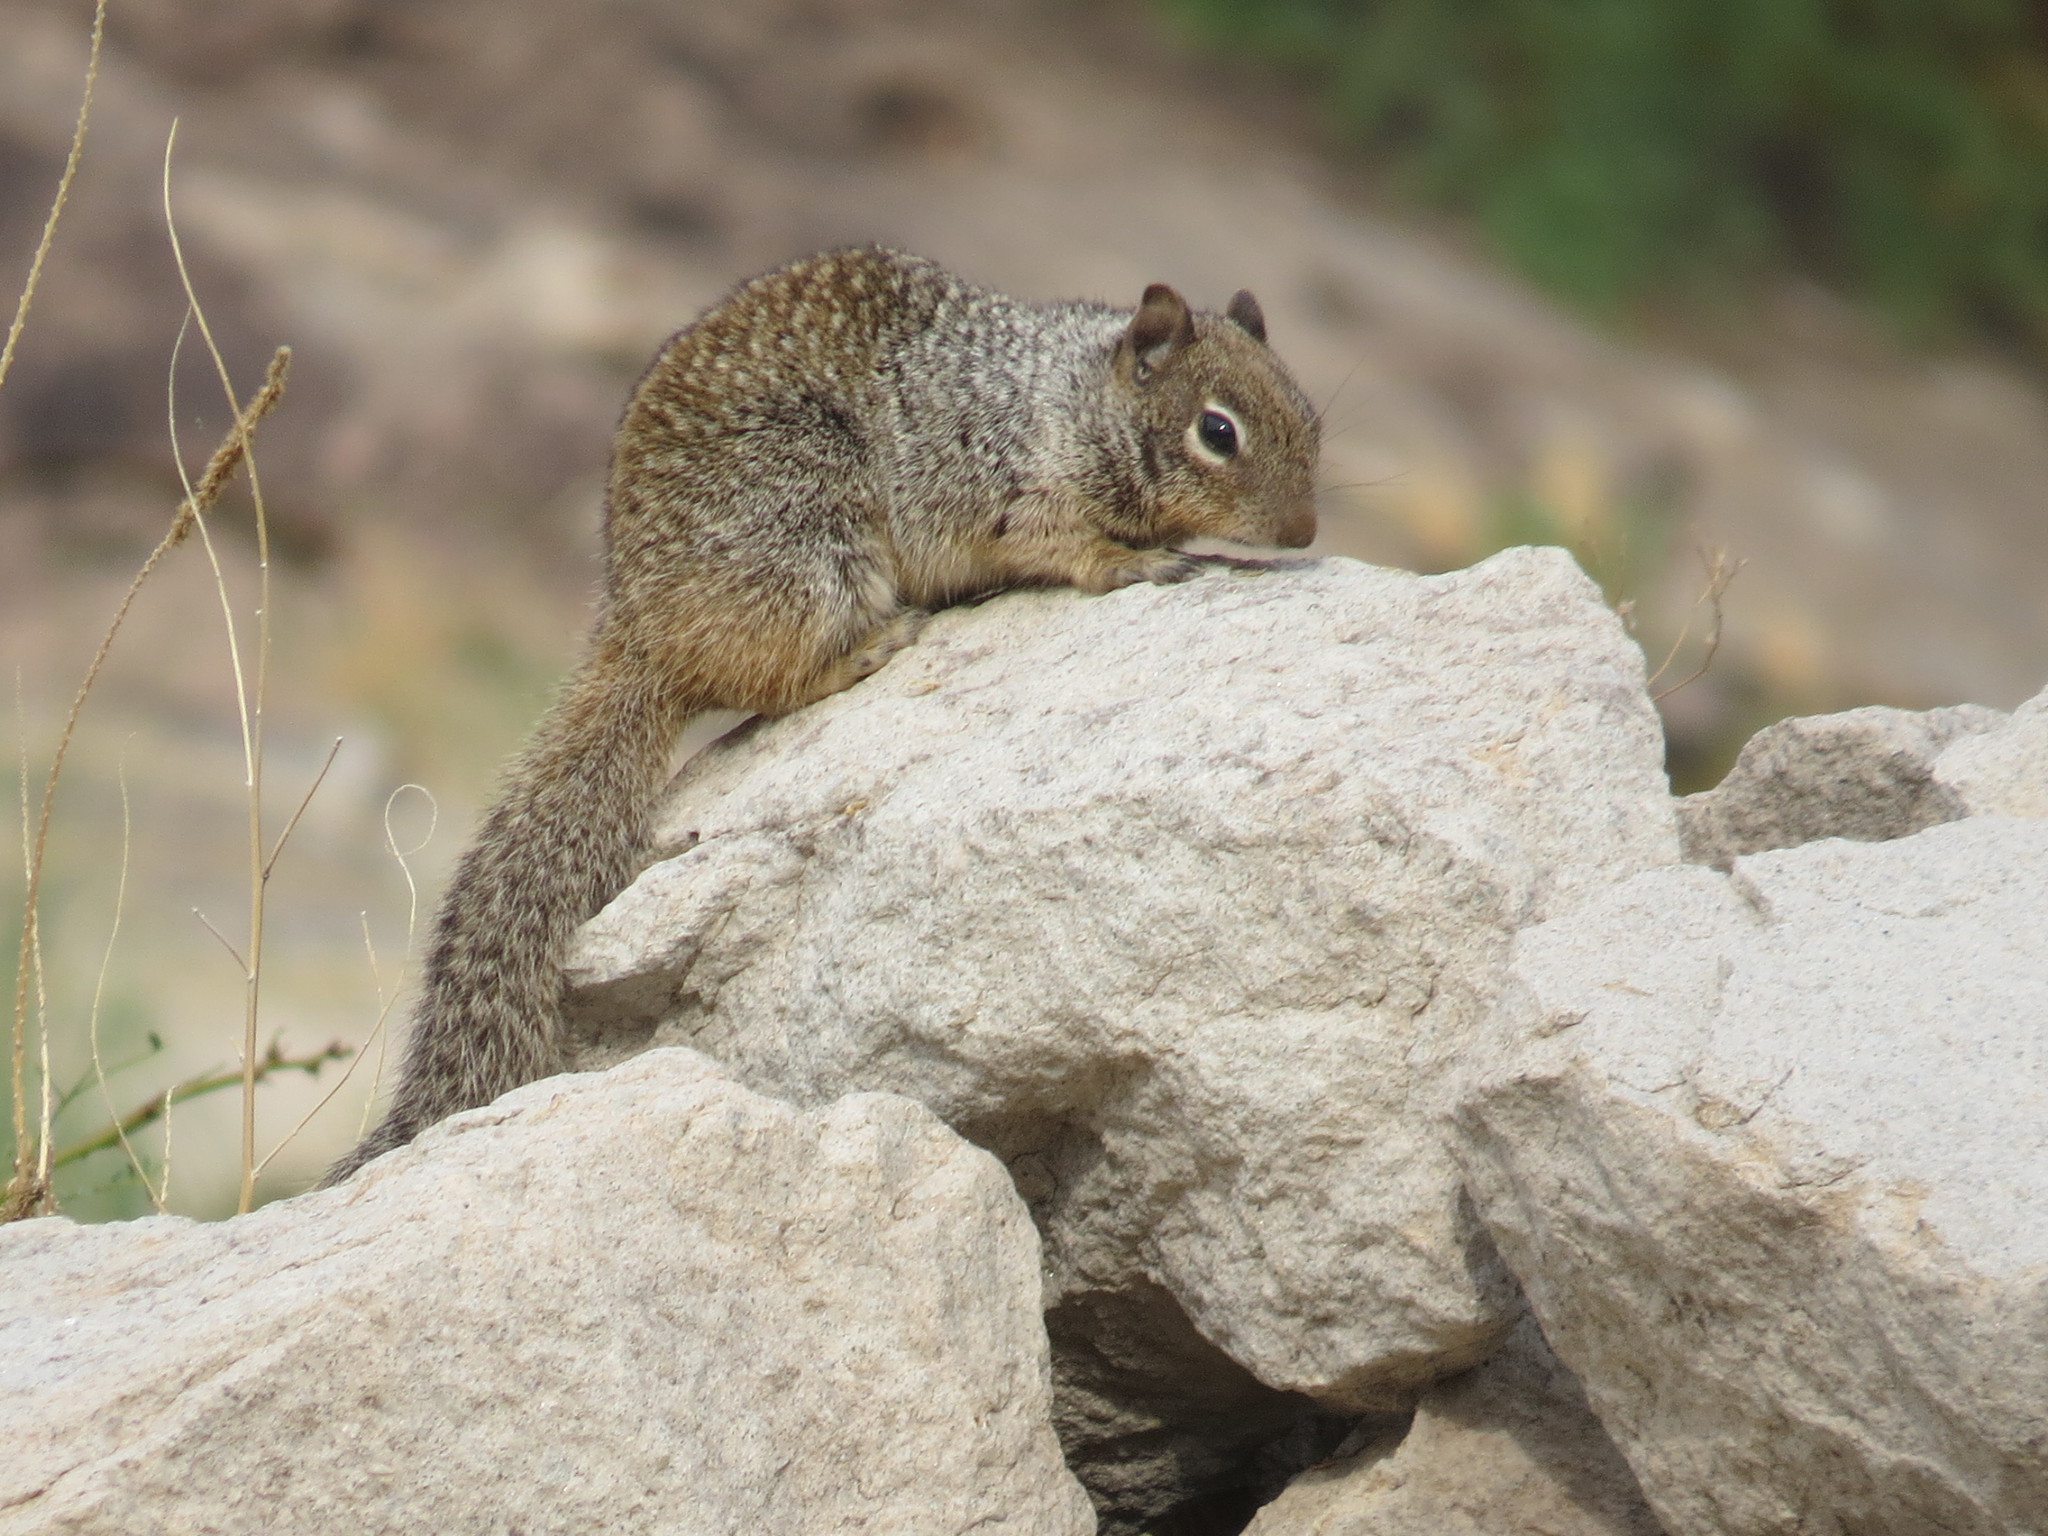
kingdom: Animalia
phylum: Chordata
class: Mammalia
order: Rodentia
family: Sciuridae
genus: Otospermophilus
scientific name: Otospermophilus variegatus
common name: Rock squirrel
